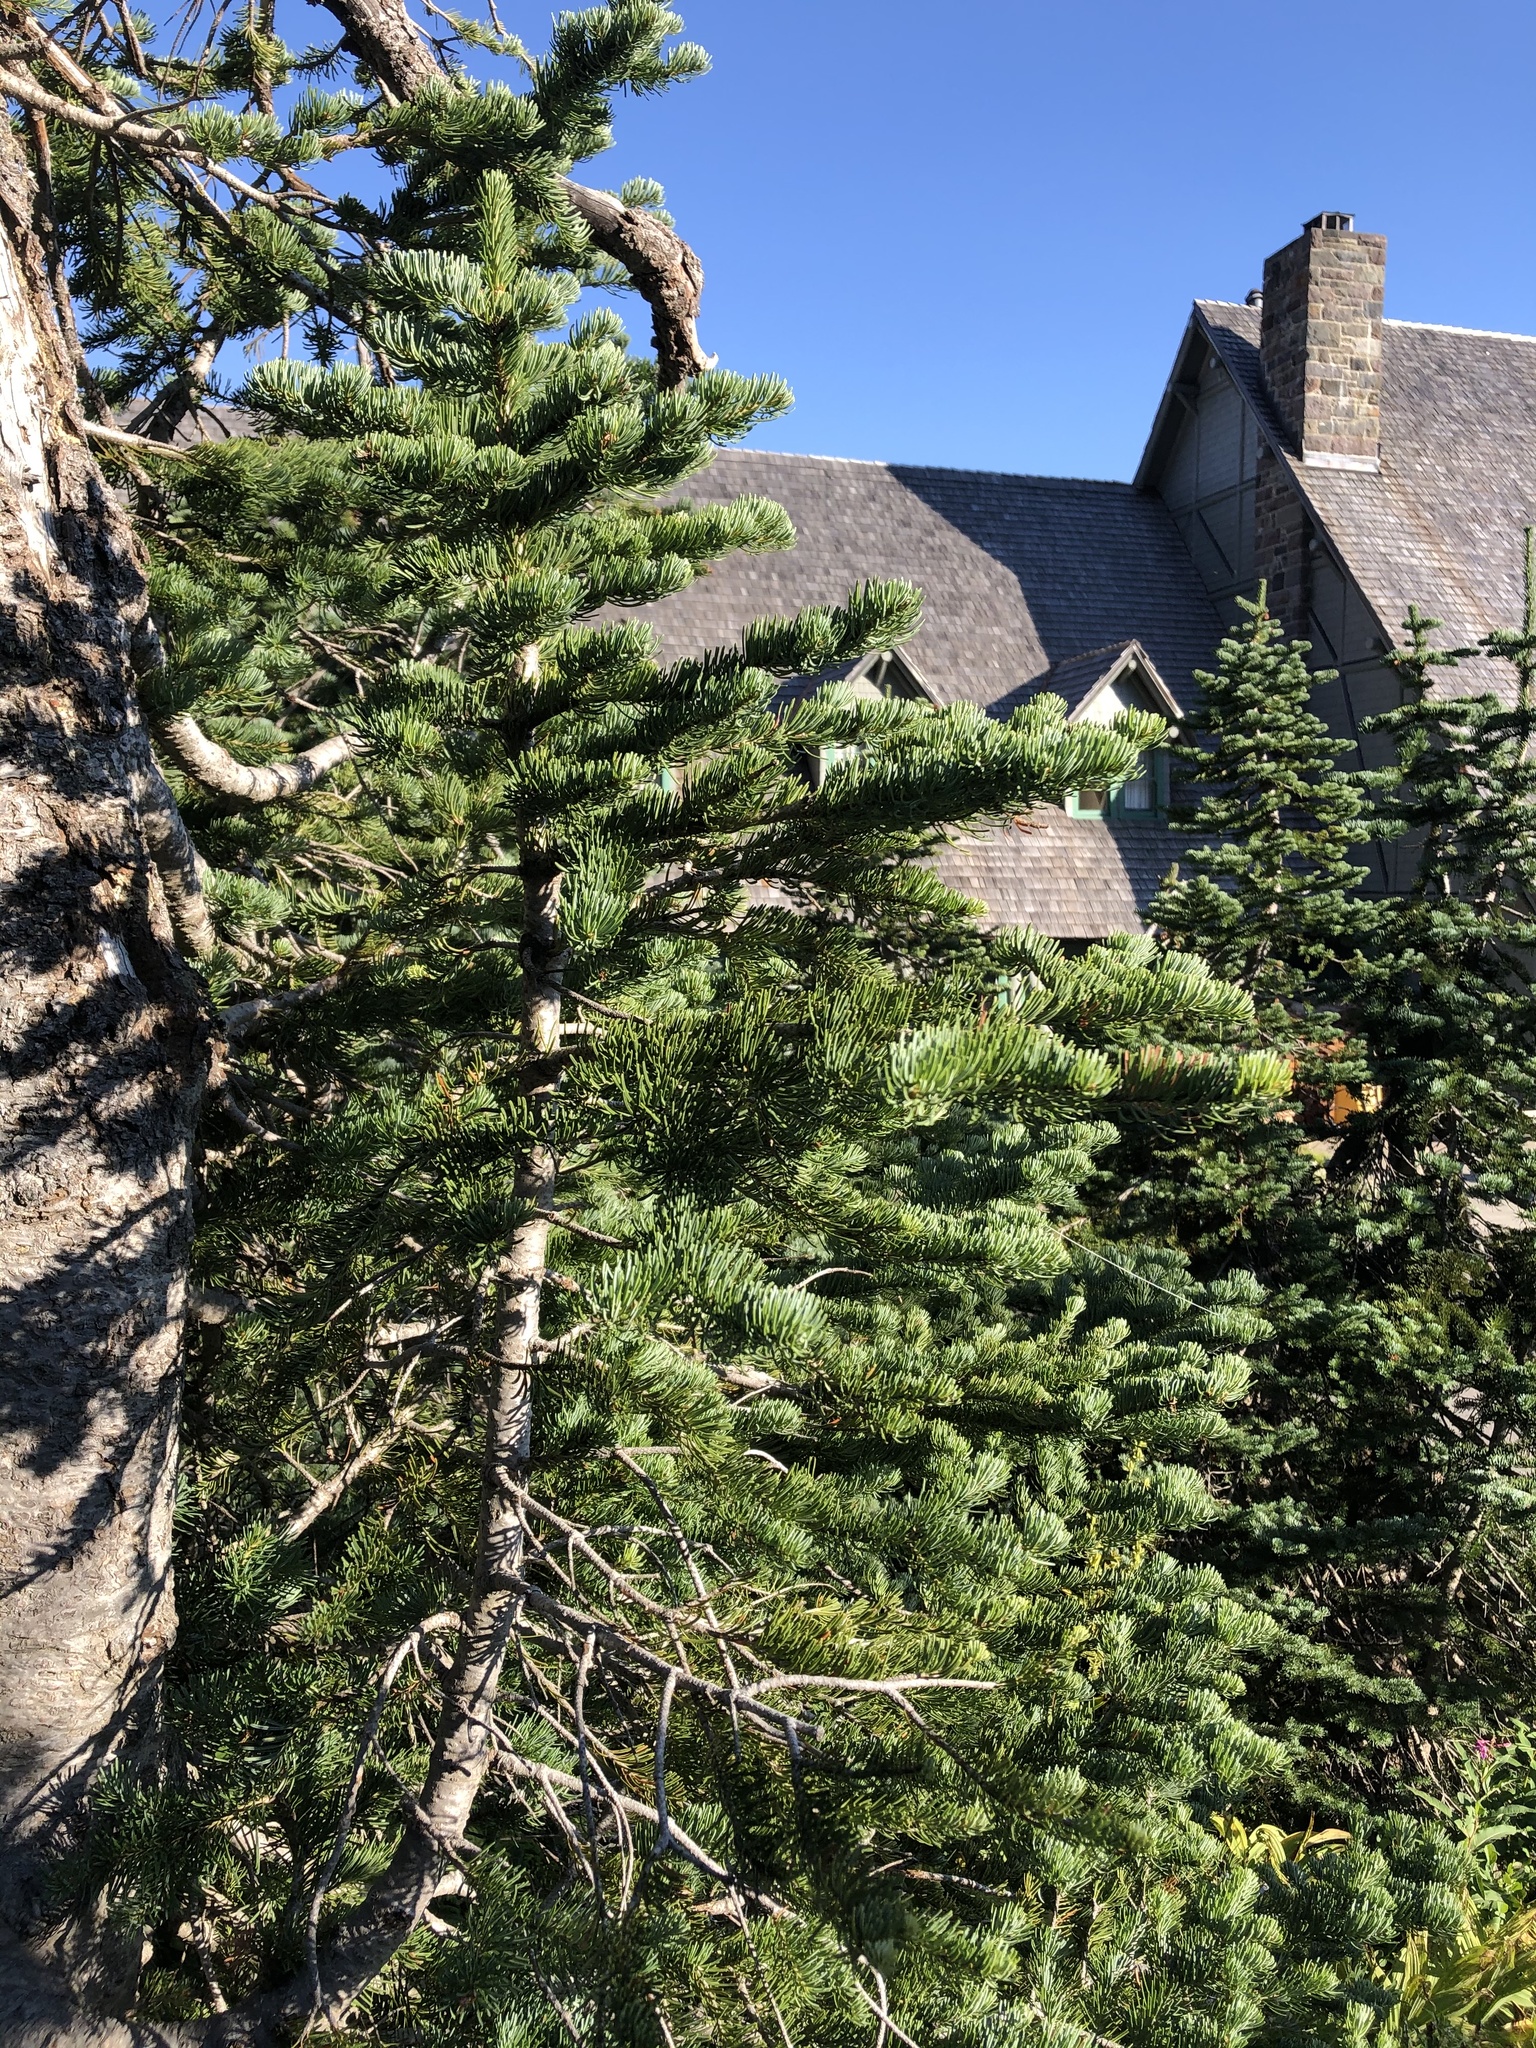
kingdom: Plantae
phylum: Tracheophyta
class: Pinopsida
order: Pinales
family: Pinaceae
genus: Abies
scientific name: Abies lasiocarpa
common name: Subalpine fir
